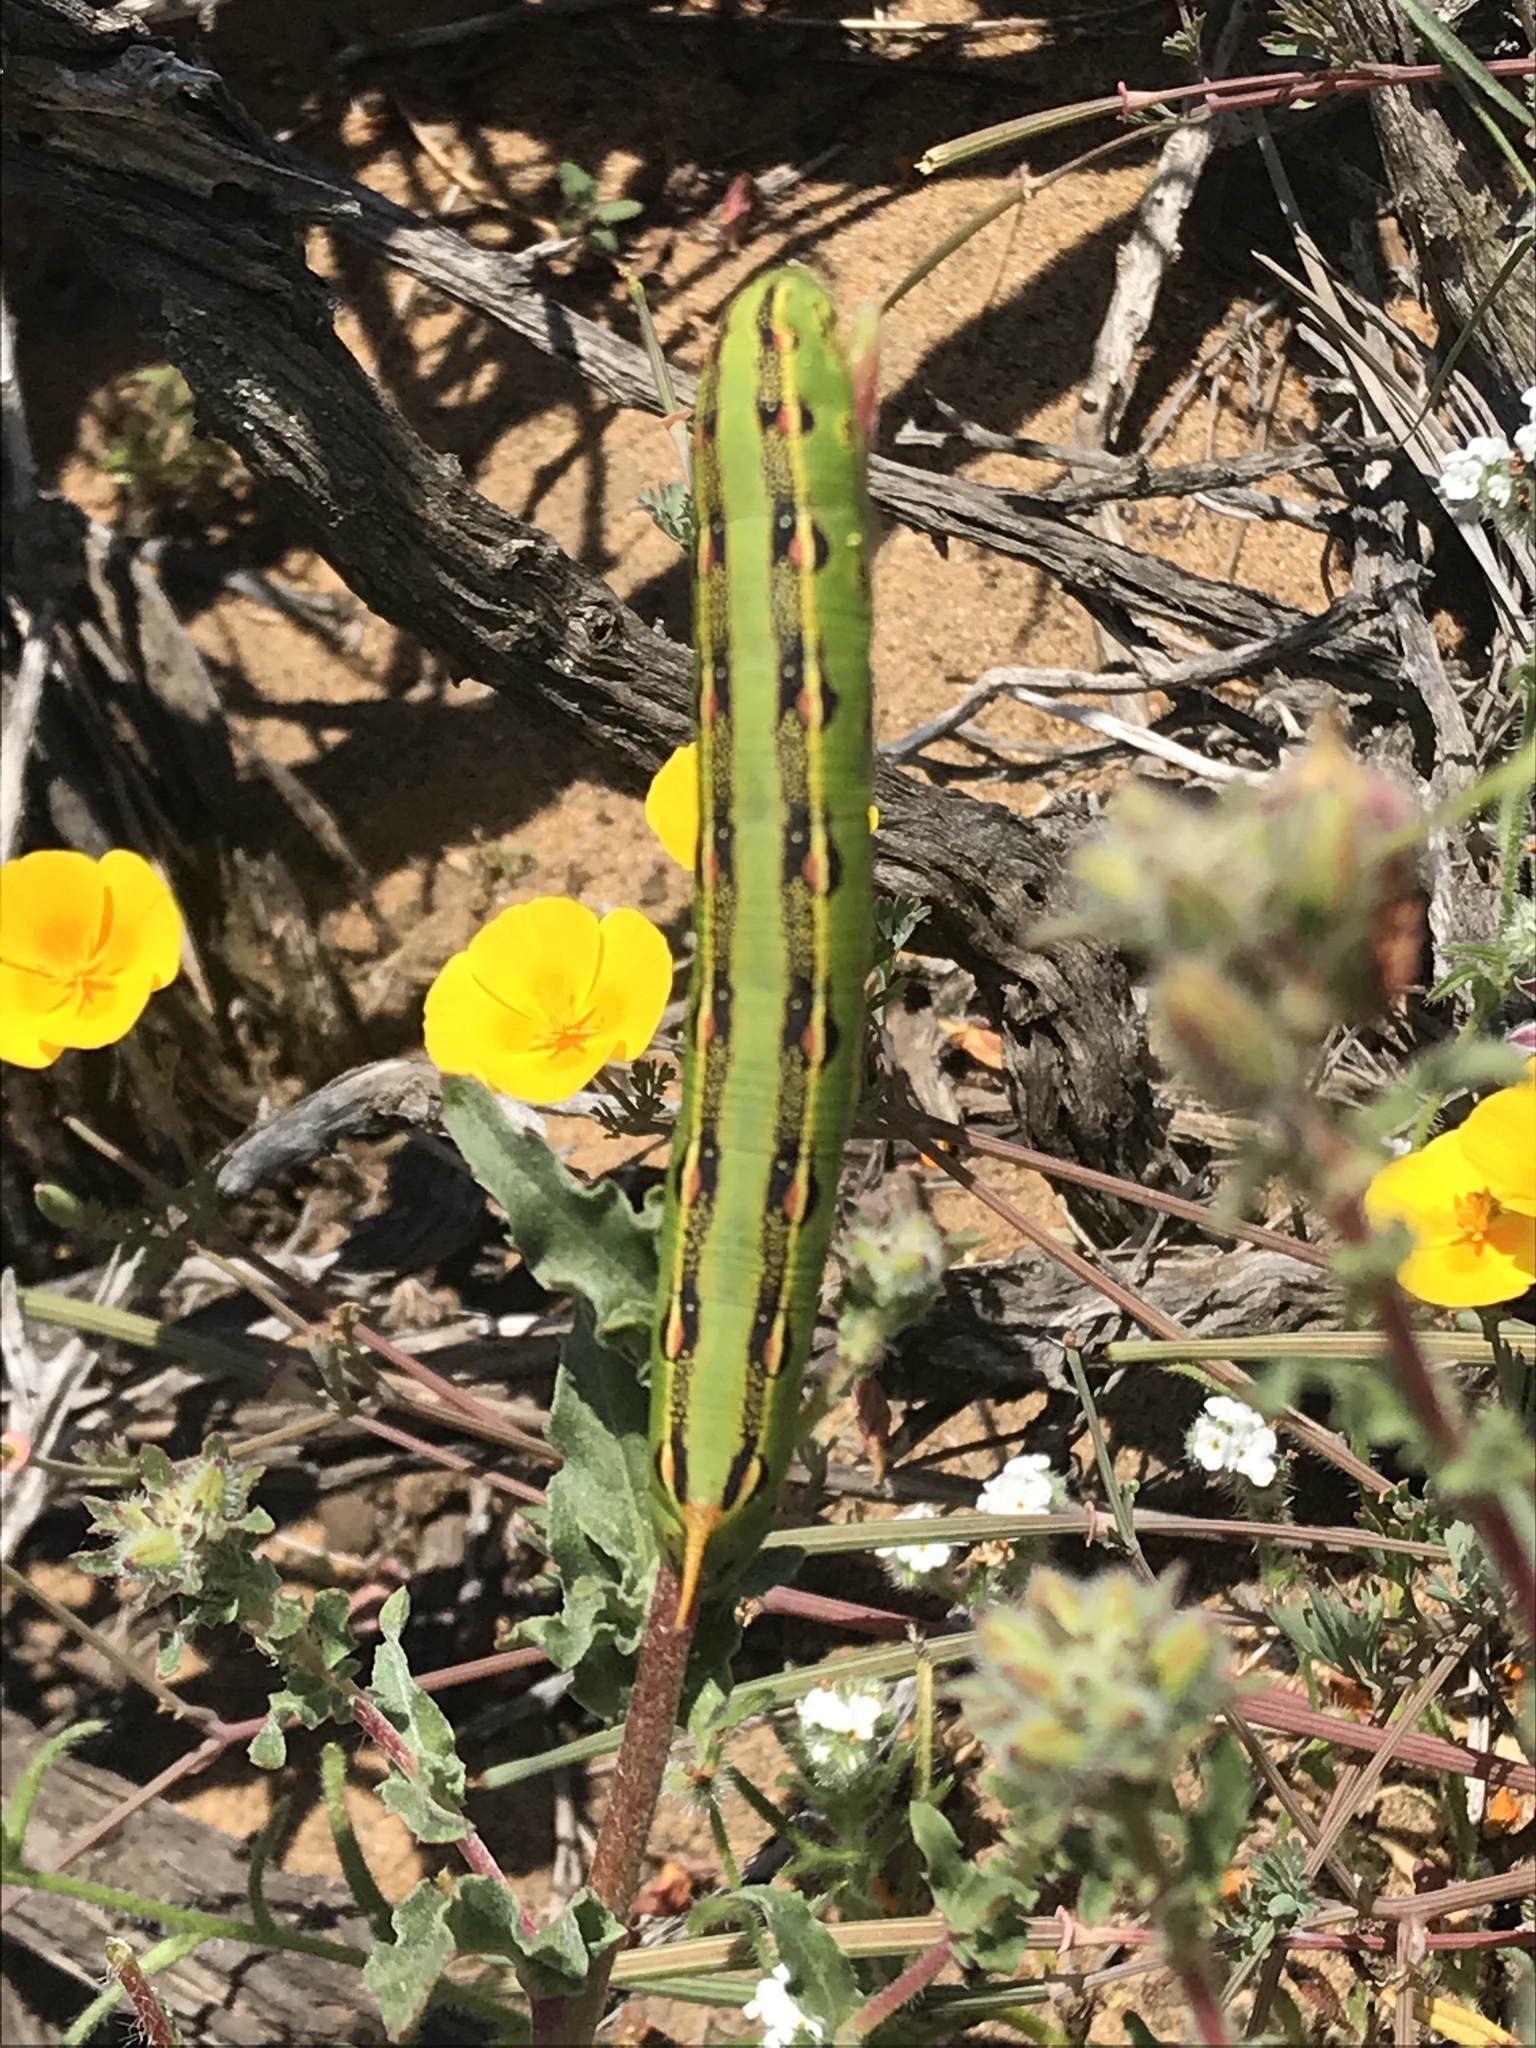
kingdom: Animalia
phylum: Arthropoda
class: Insecta
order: Lepidoptera
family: Sphingidae
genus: Hyles
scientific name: Hyles lineata
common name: White-lined sphinx
